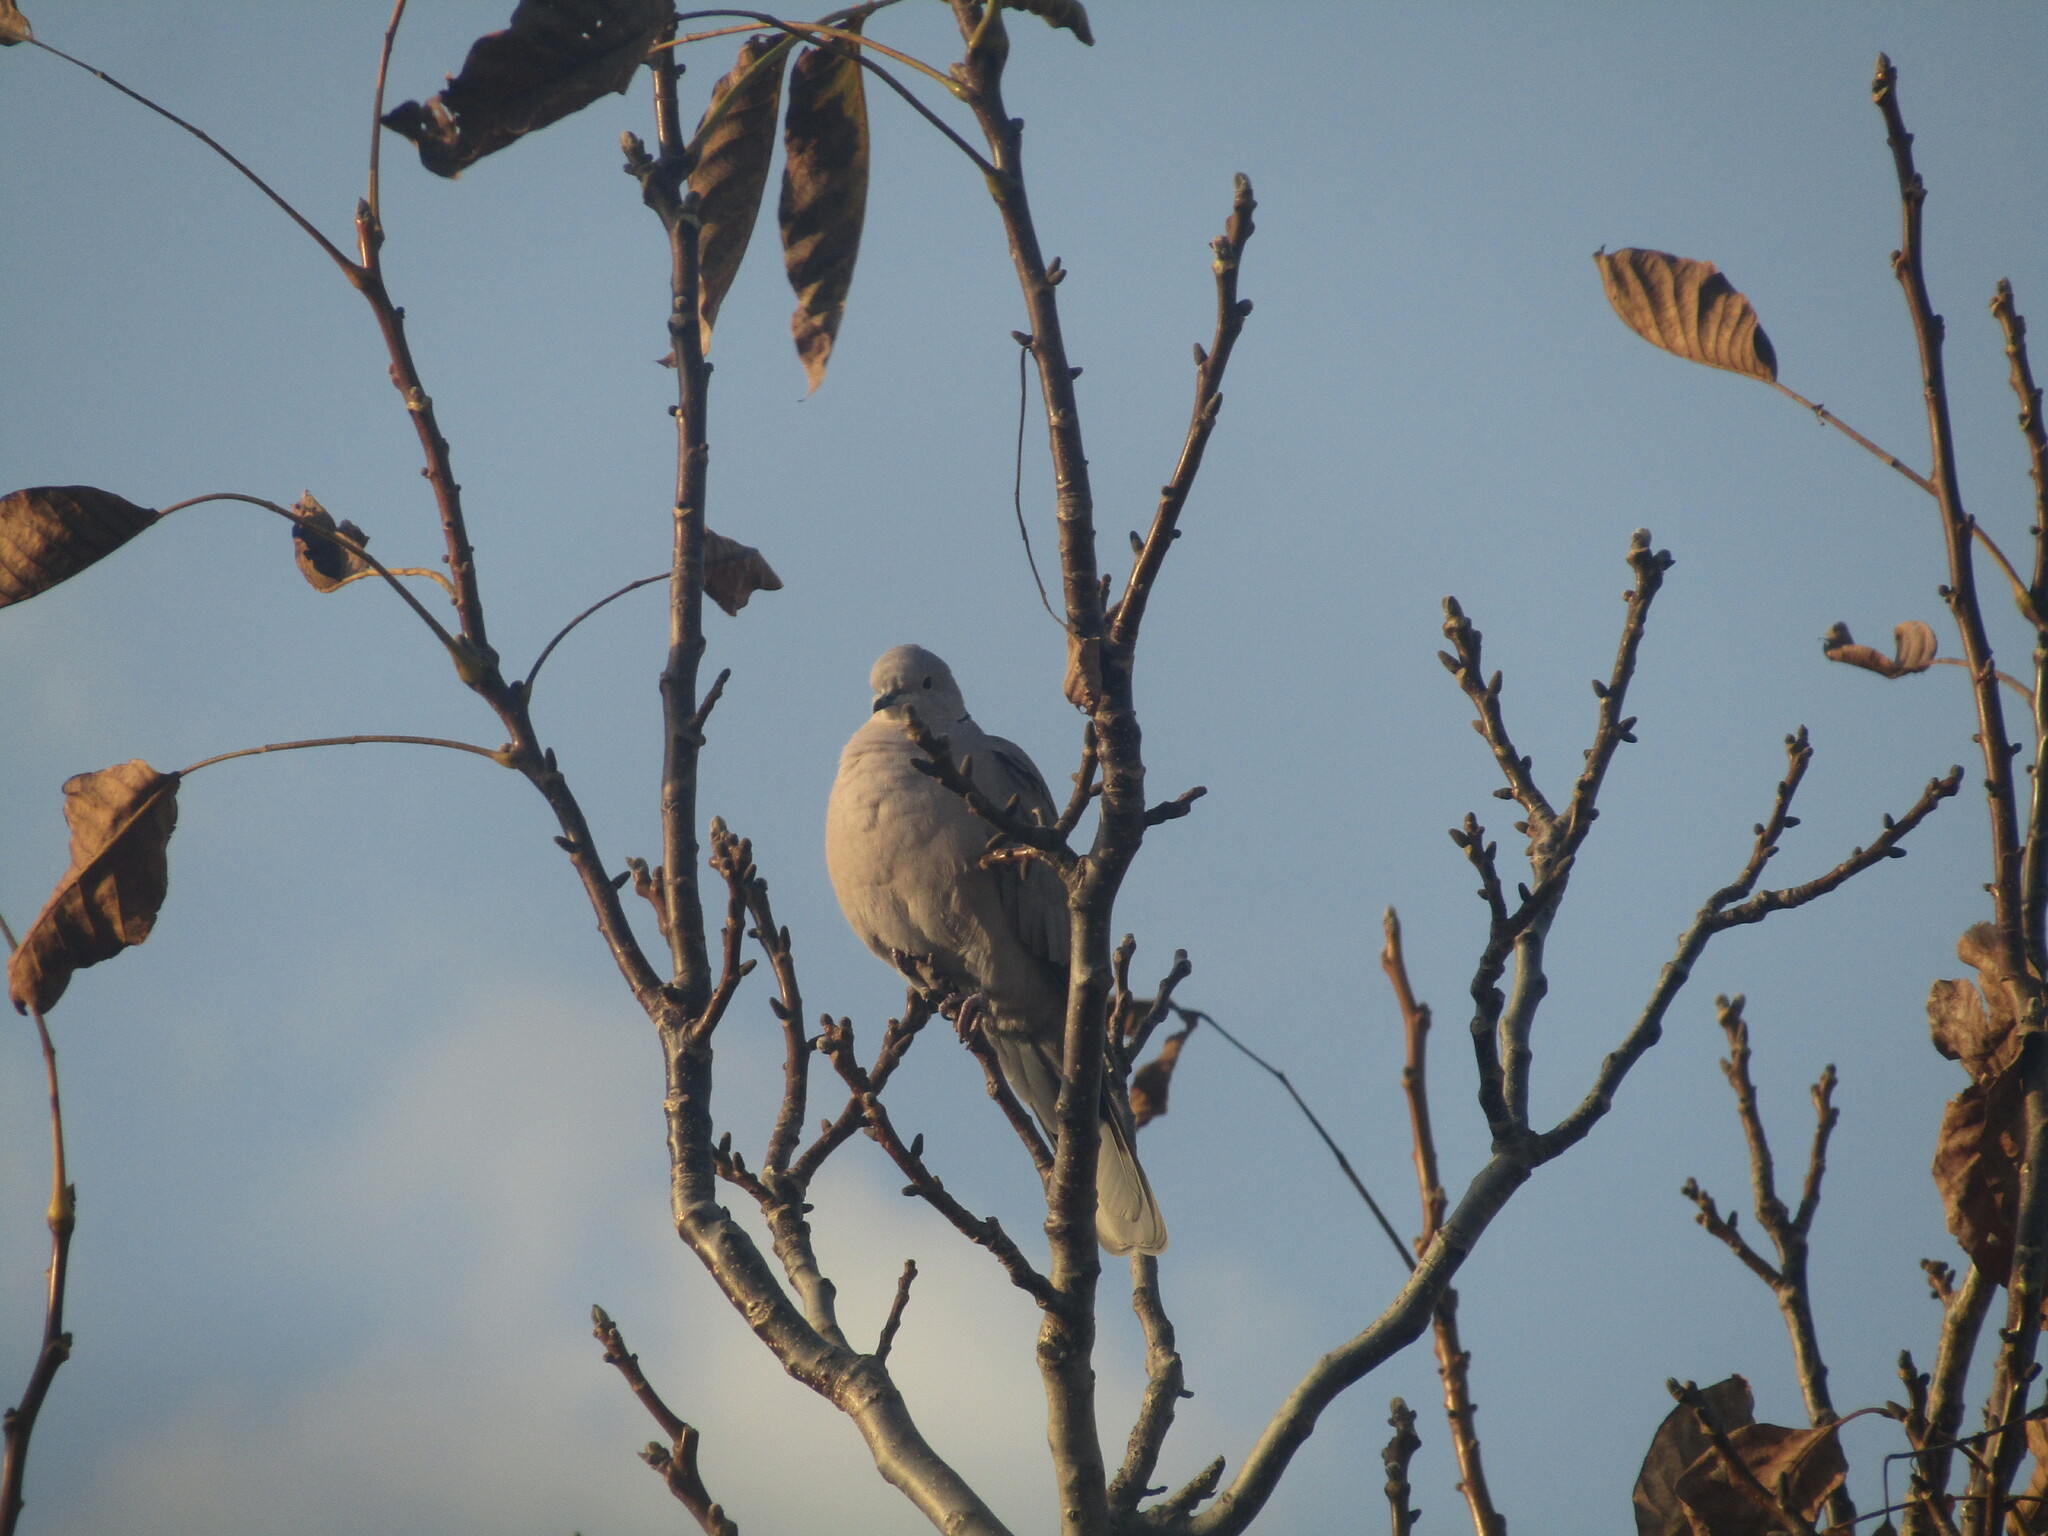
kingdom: Animalia
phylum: Chordata
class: Aves
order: Columbiformes
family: Columbidae
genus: Streptopelia
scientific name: Streptopelia decaocto
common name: Eurasian collared dove
